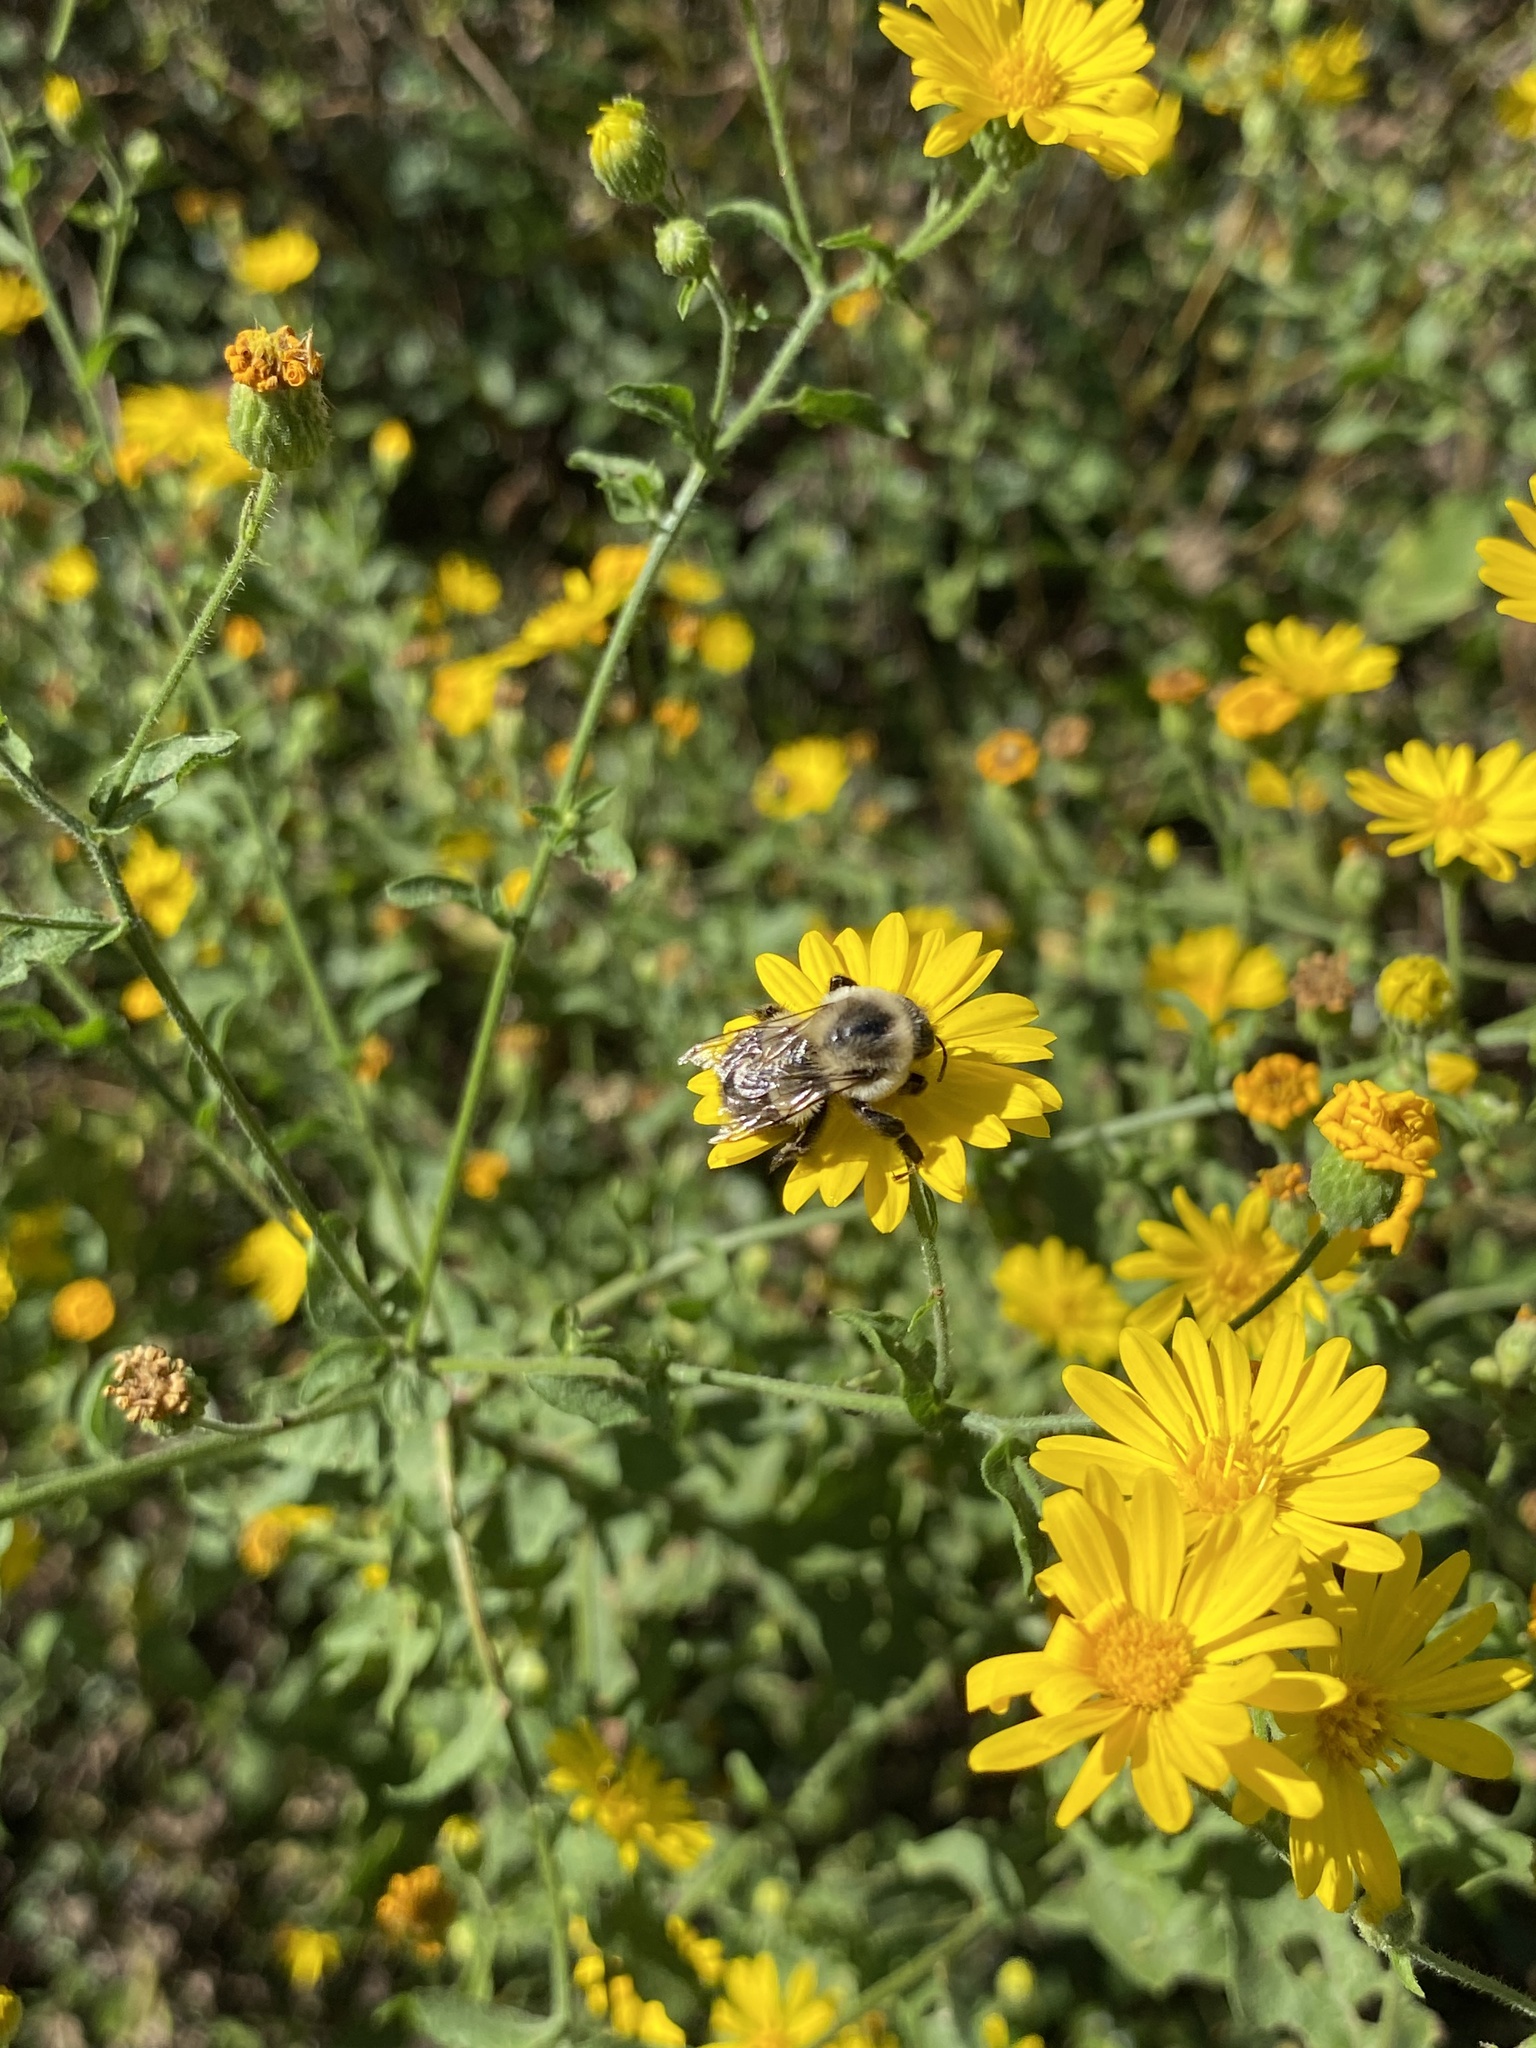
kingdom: Animalia
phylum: Arthropoda
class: Insecta
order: Hymenoptera
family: Apidae
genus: Bombus
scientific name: Bombus impatiens
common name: Common eastern bumble bee
